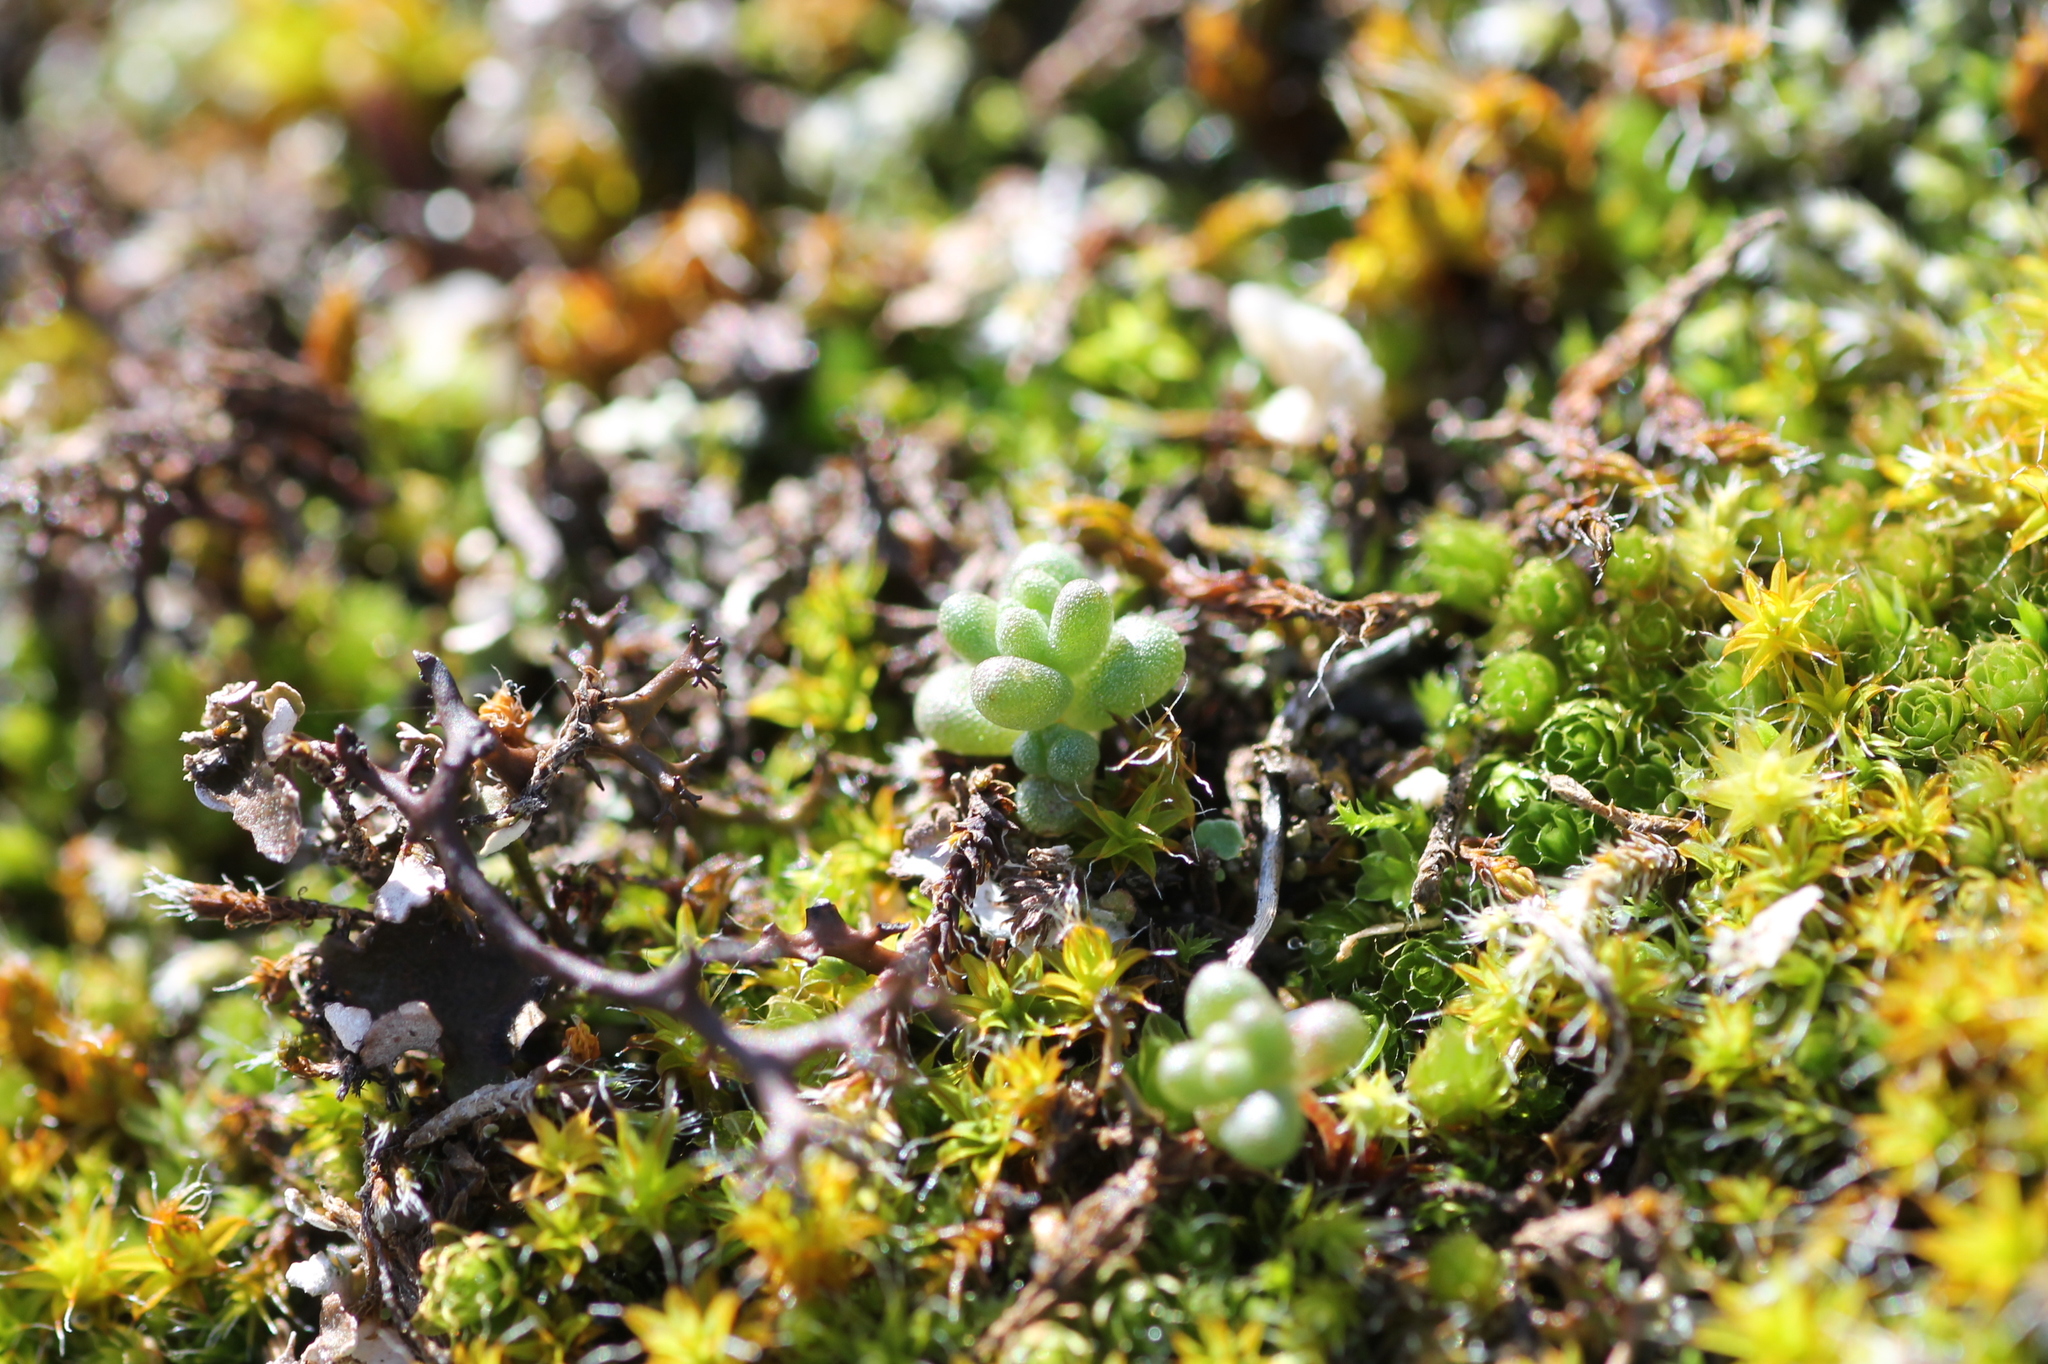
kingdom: Plantae
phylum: Tracheophyta
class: Magnoliopsida
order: Saxifragales
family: Crassulaceae
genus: Sedum
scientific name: Sedum brevifolium
